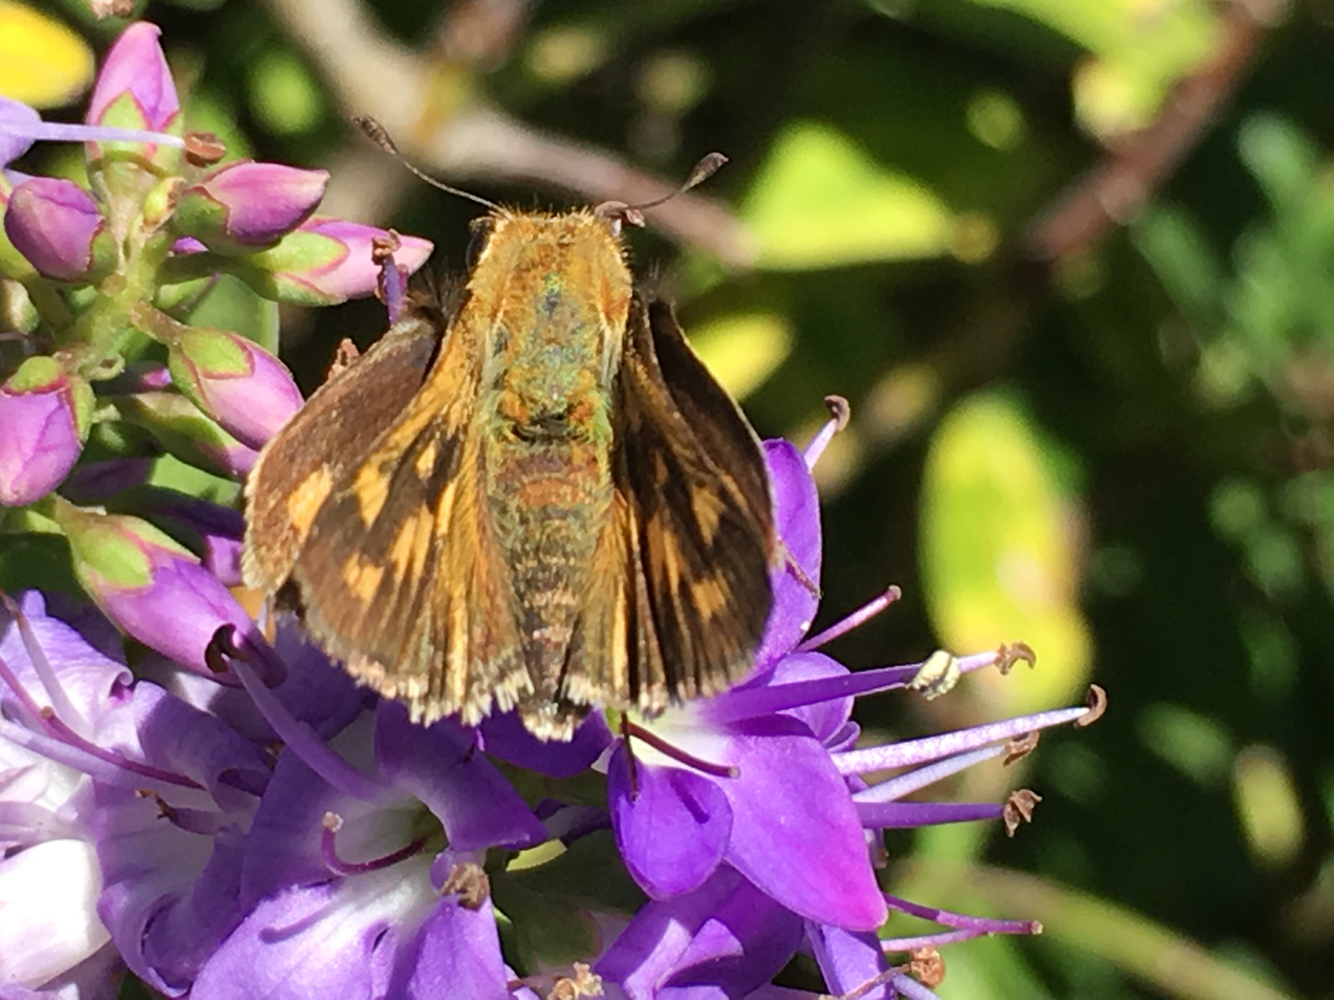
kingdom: Animalia
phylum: Arthropoda
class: Insecta
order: Lepidoptera
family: Hesperiidae
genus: Hylephila
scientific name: Hylephila phyleus
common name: Fiery skipper
